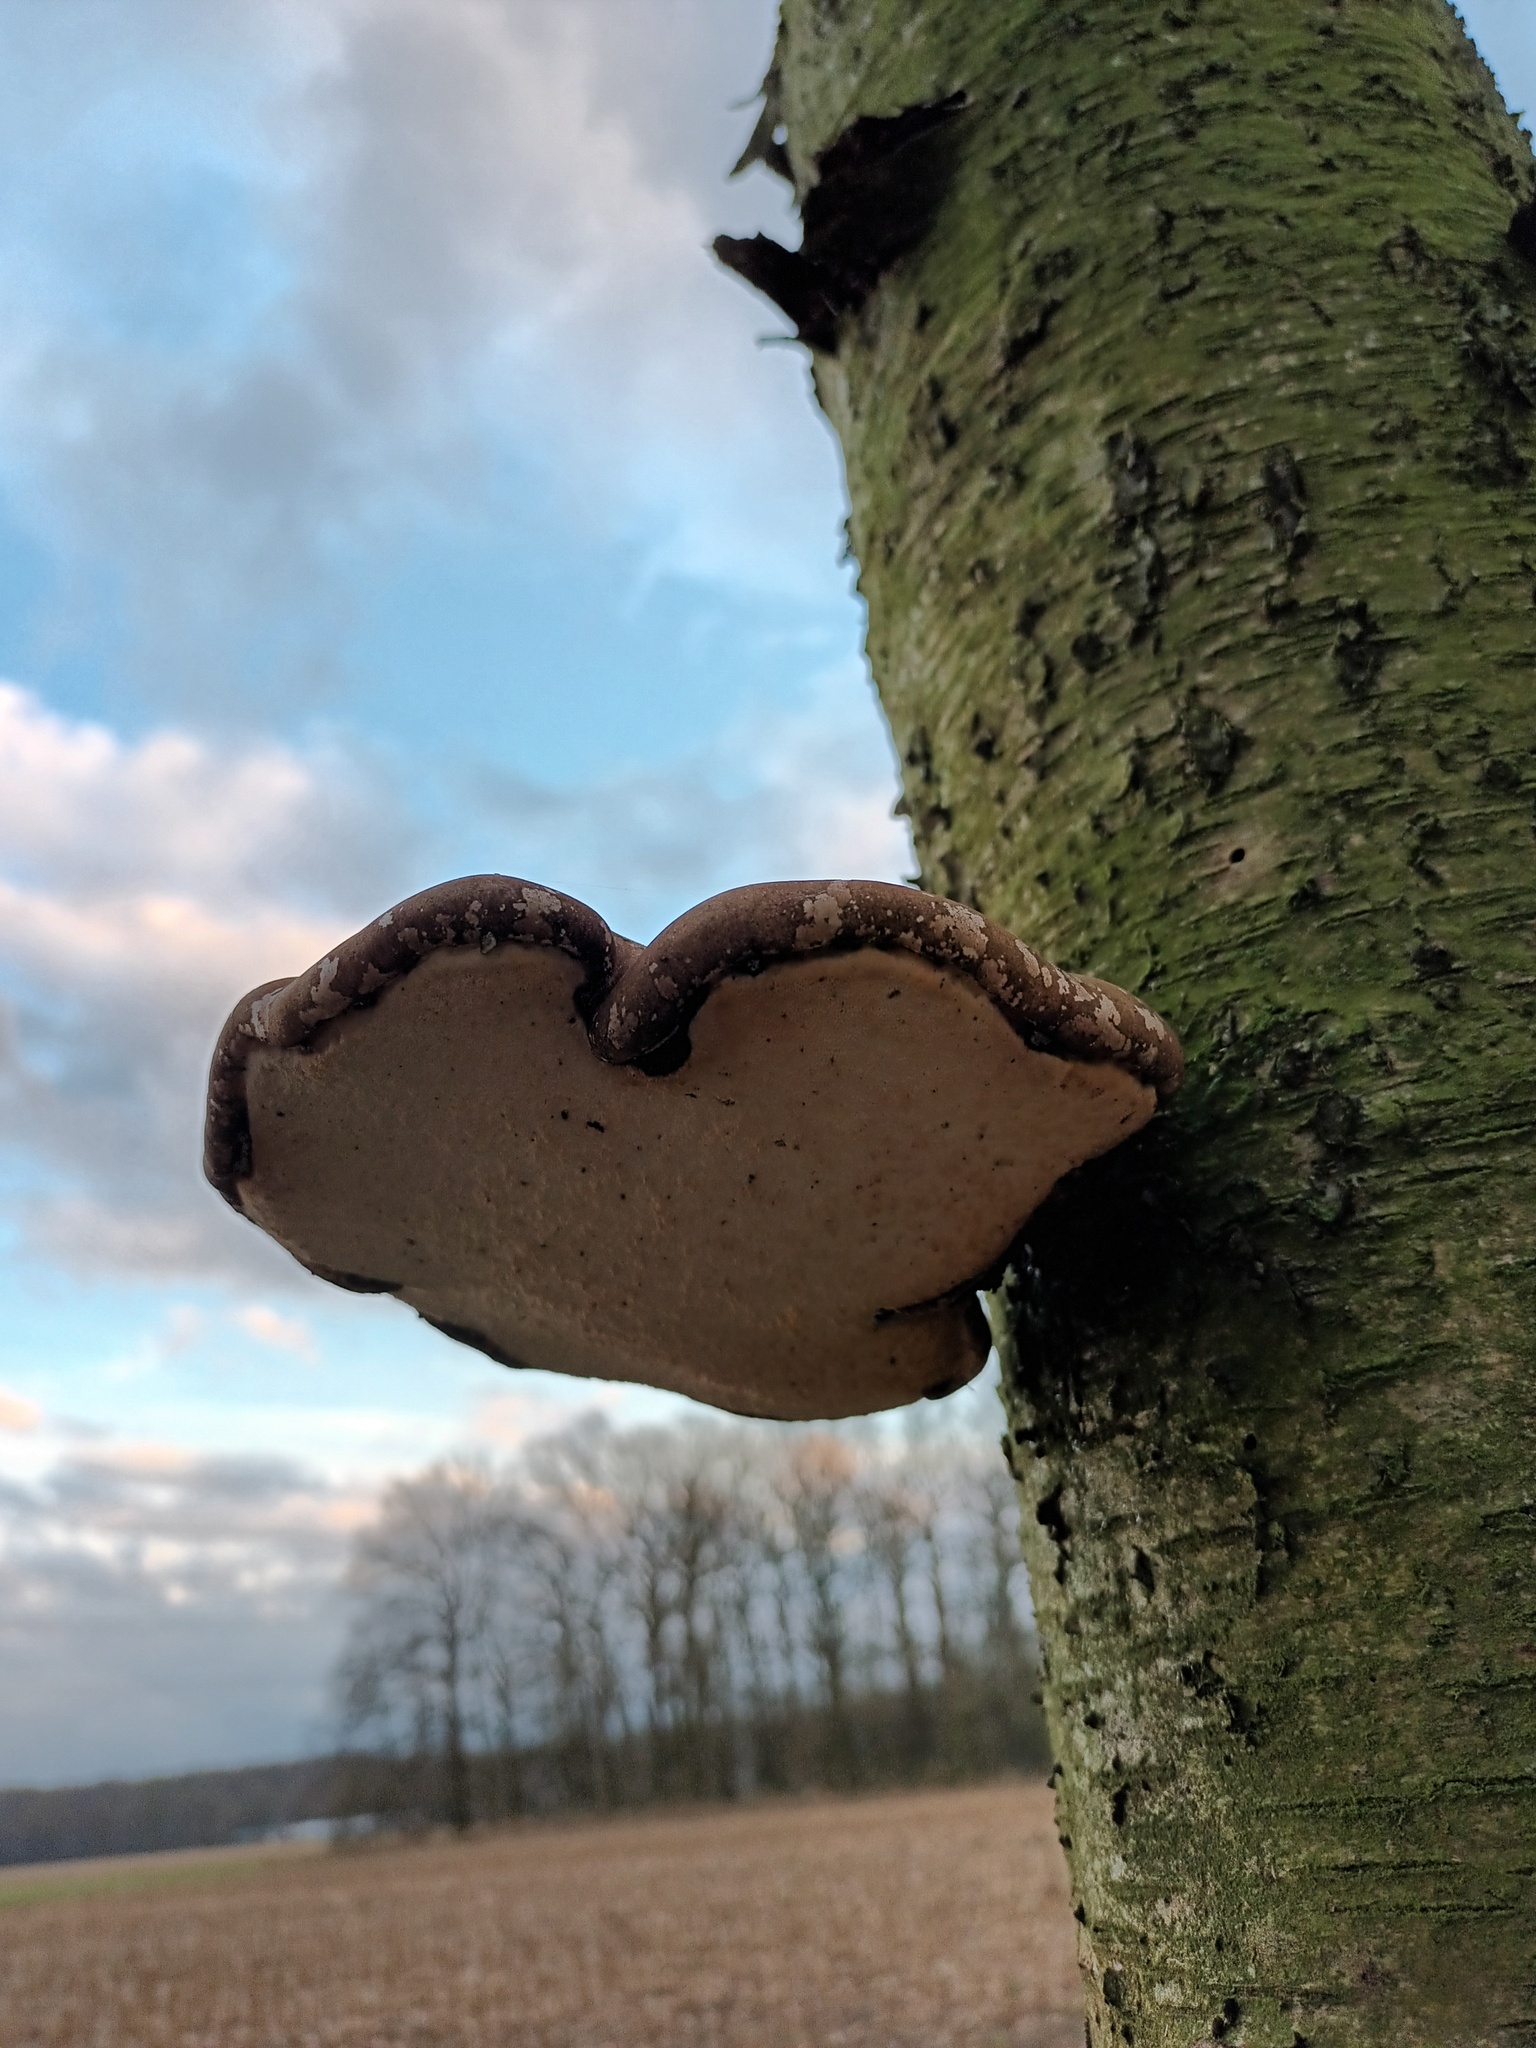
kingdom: Fungi
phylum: Basidiomycota
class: Agaricomycetes
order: Polyporales
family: Fomitopsidaceae
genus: Fomitopsis
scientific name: Fomitopsis betulina
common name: Birch polypore
